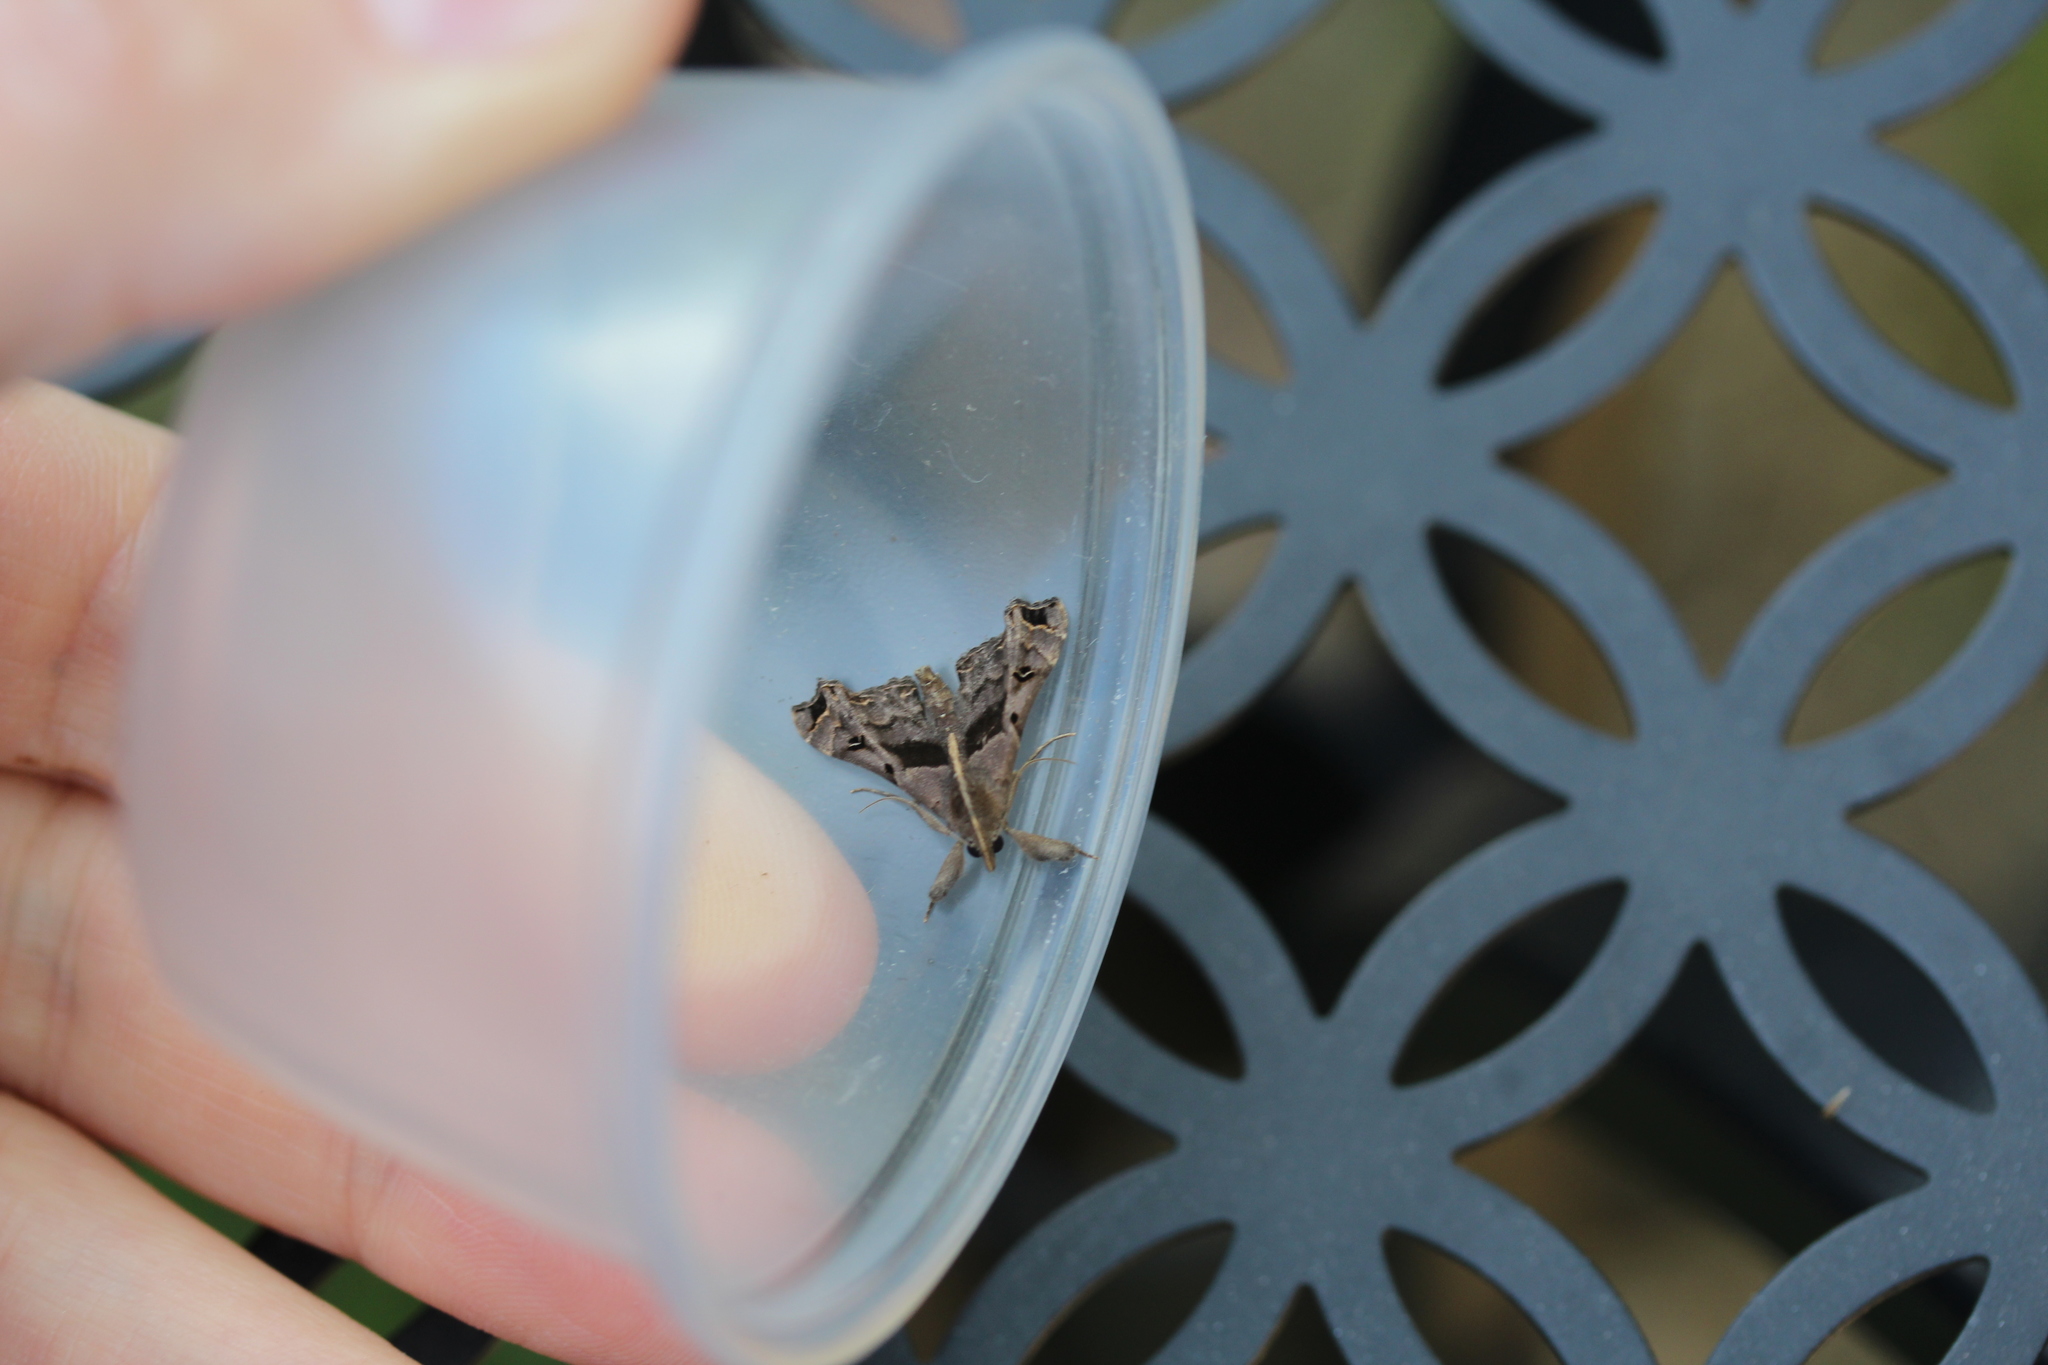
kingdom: Animalia
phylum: Arthropoda
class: Insecta
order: Lepidoptera
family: Erebidae
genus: Palthis
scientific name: Palthis asopialis
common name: Faint-spotted palthis moth
